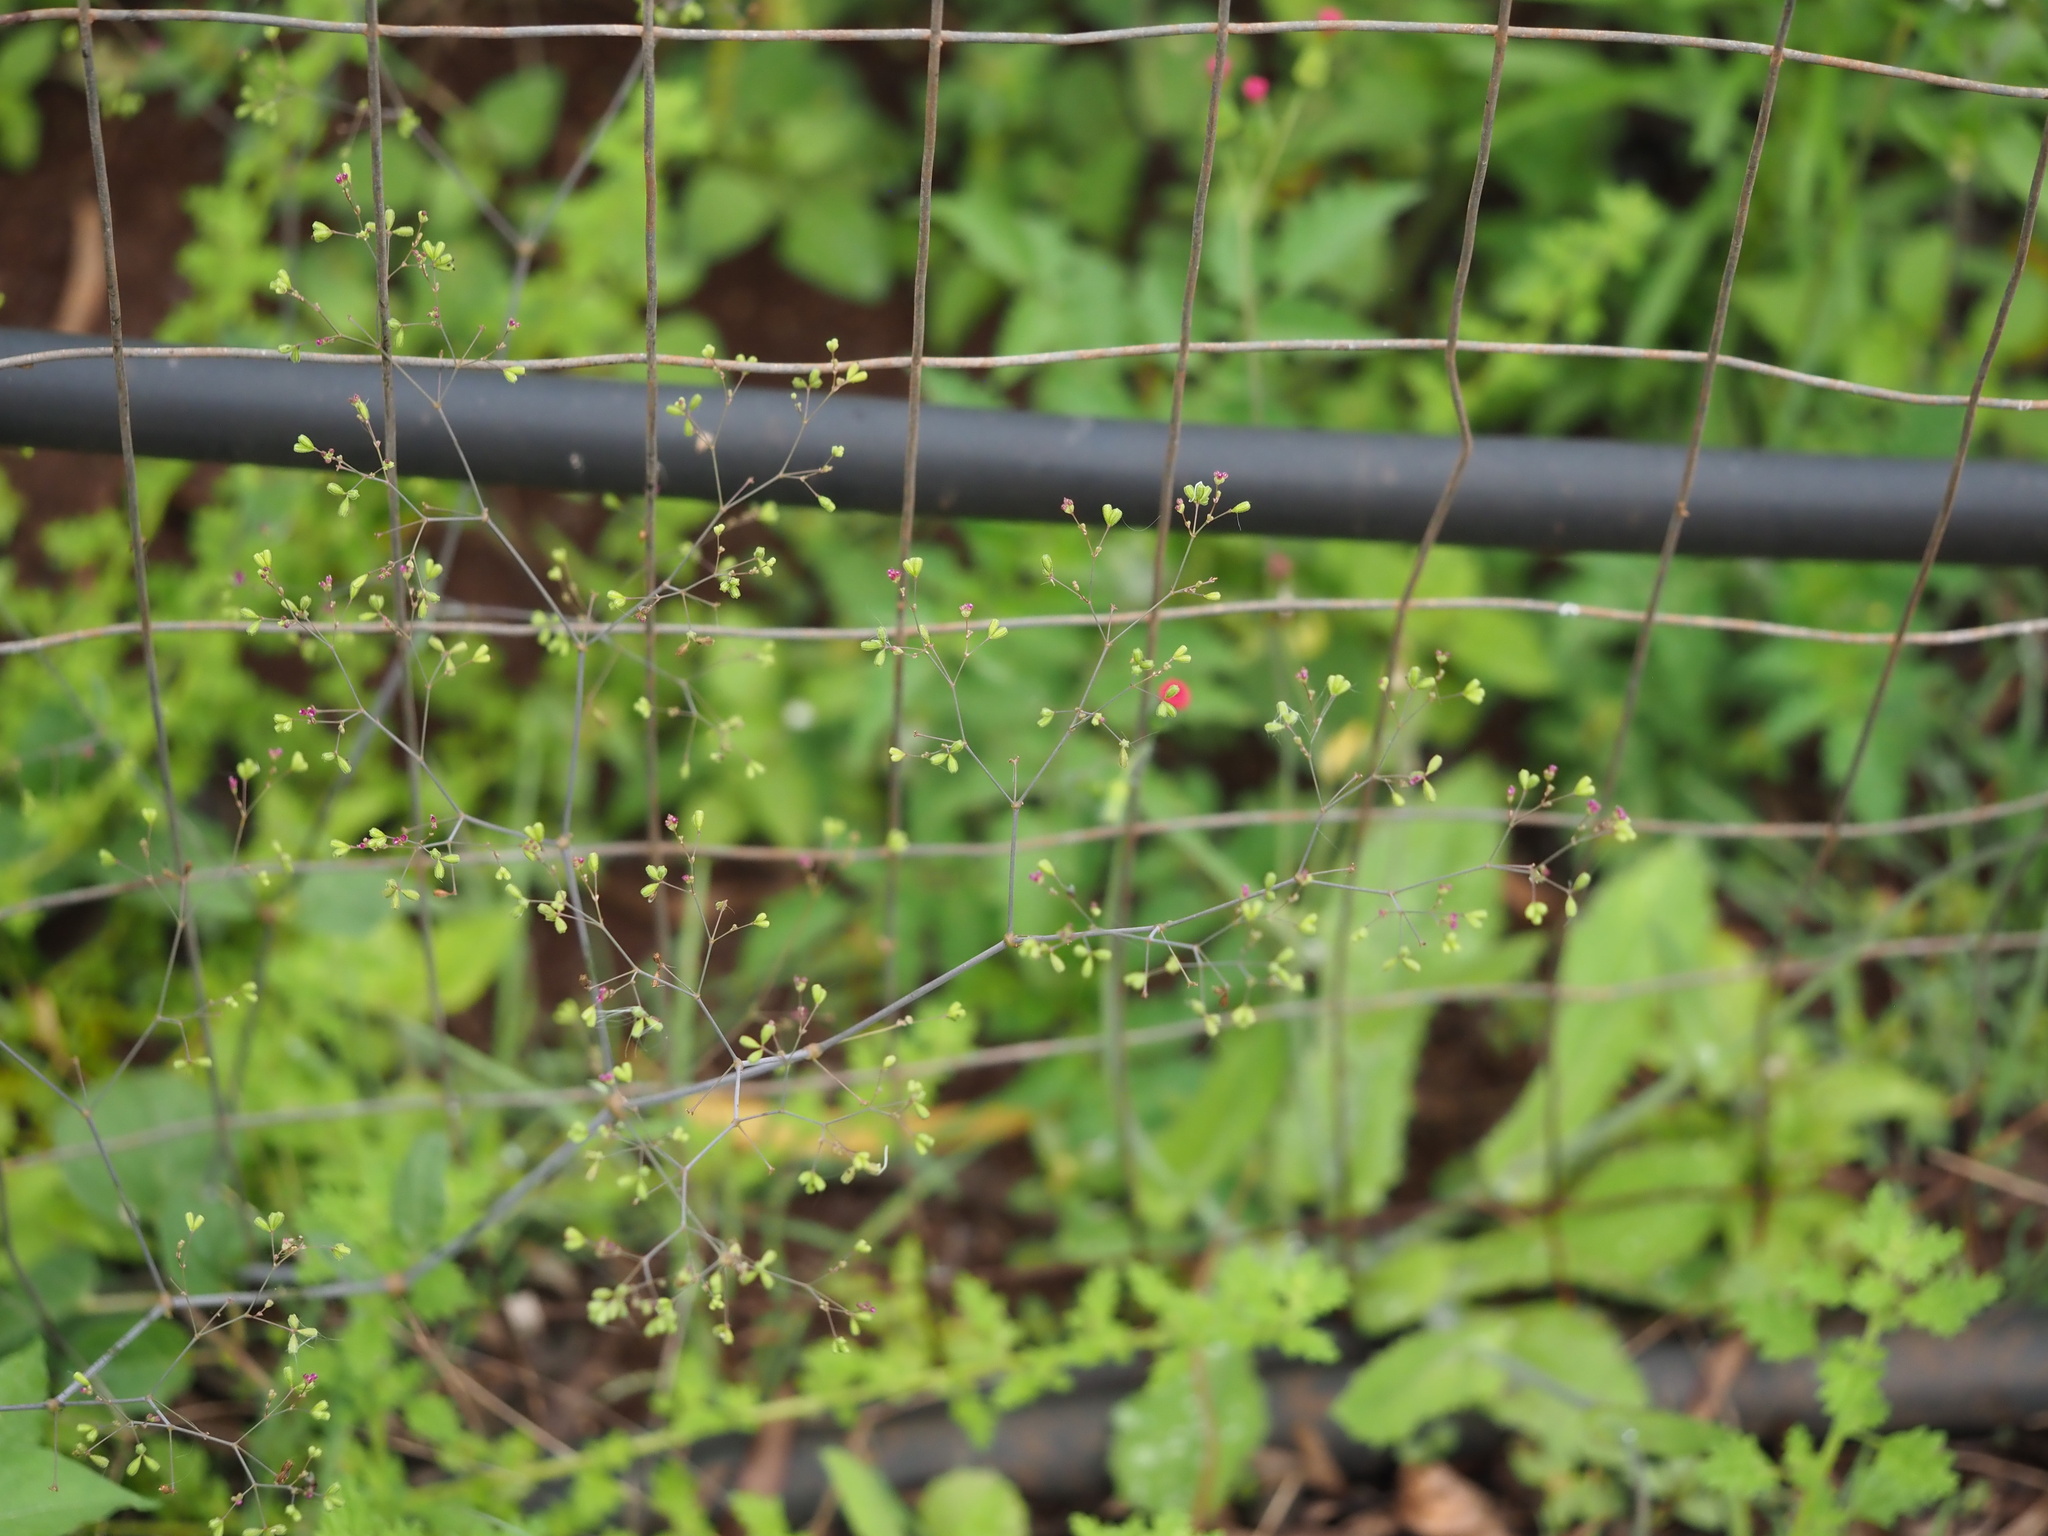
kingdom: Plantae
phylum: Tracheophyta
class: Magnoliopsida
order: Caryophyllales
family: Nyctaginaceae
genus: Boerhavia
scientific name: Boerhavia diffusa
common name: Red spiderling
